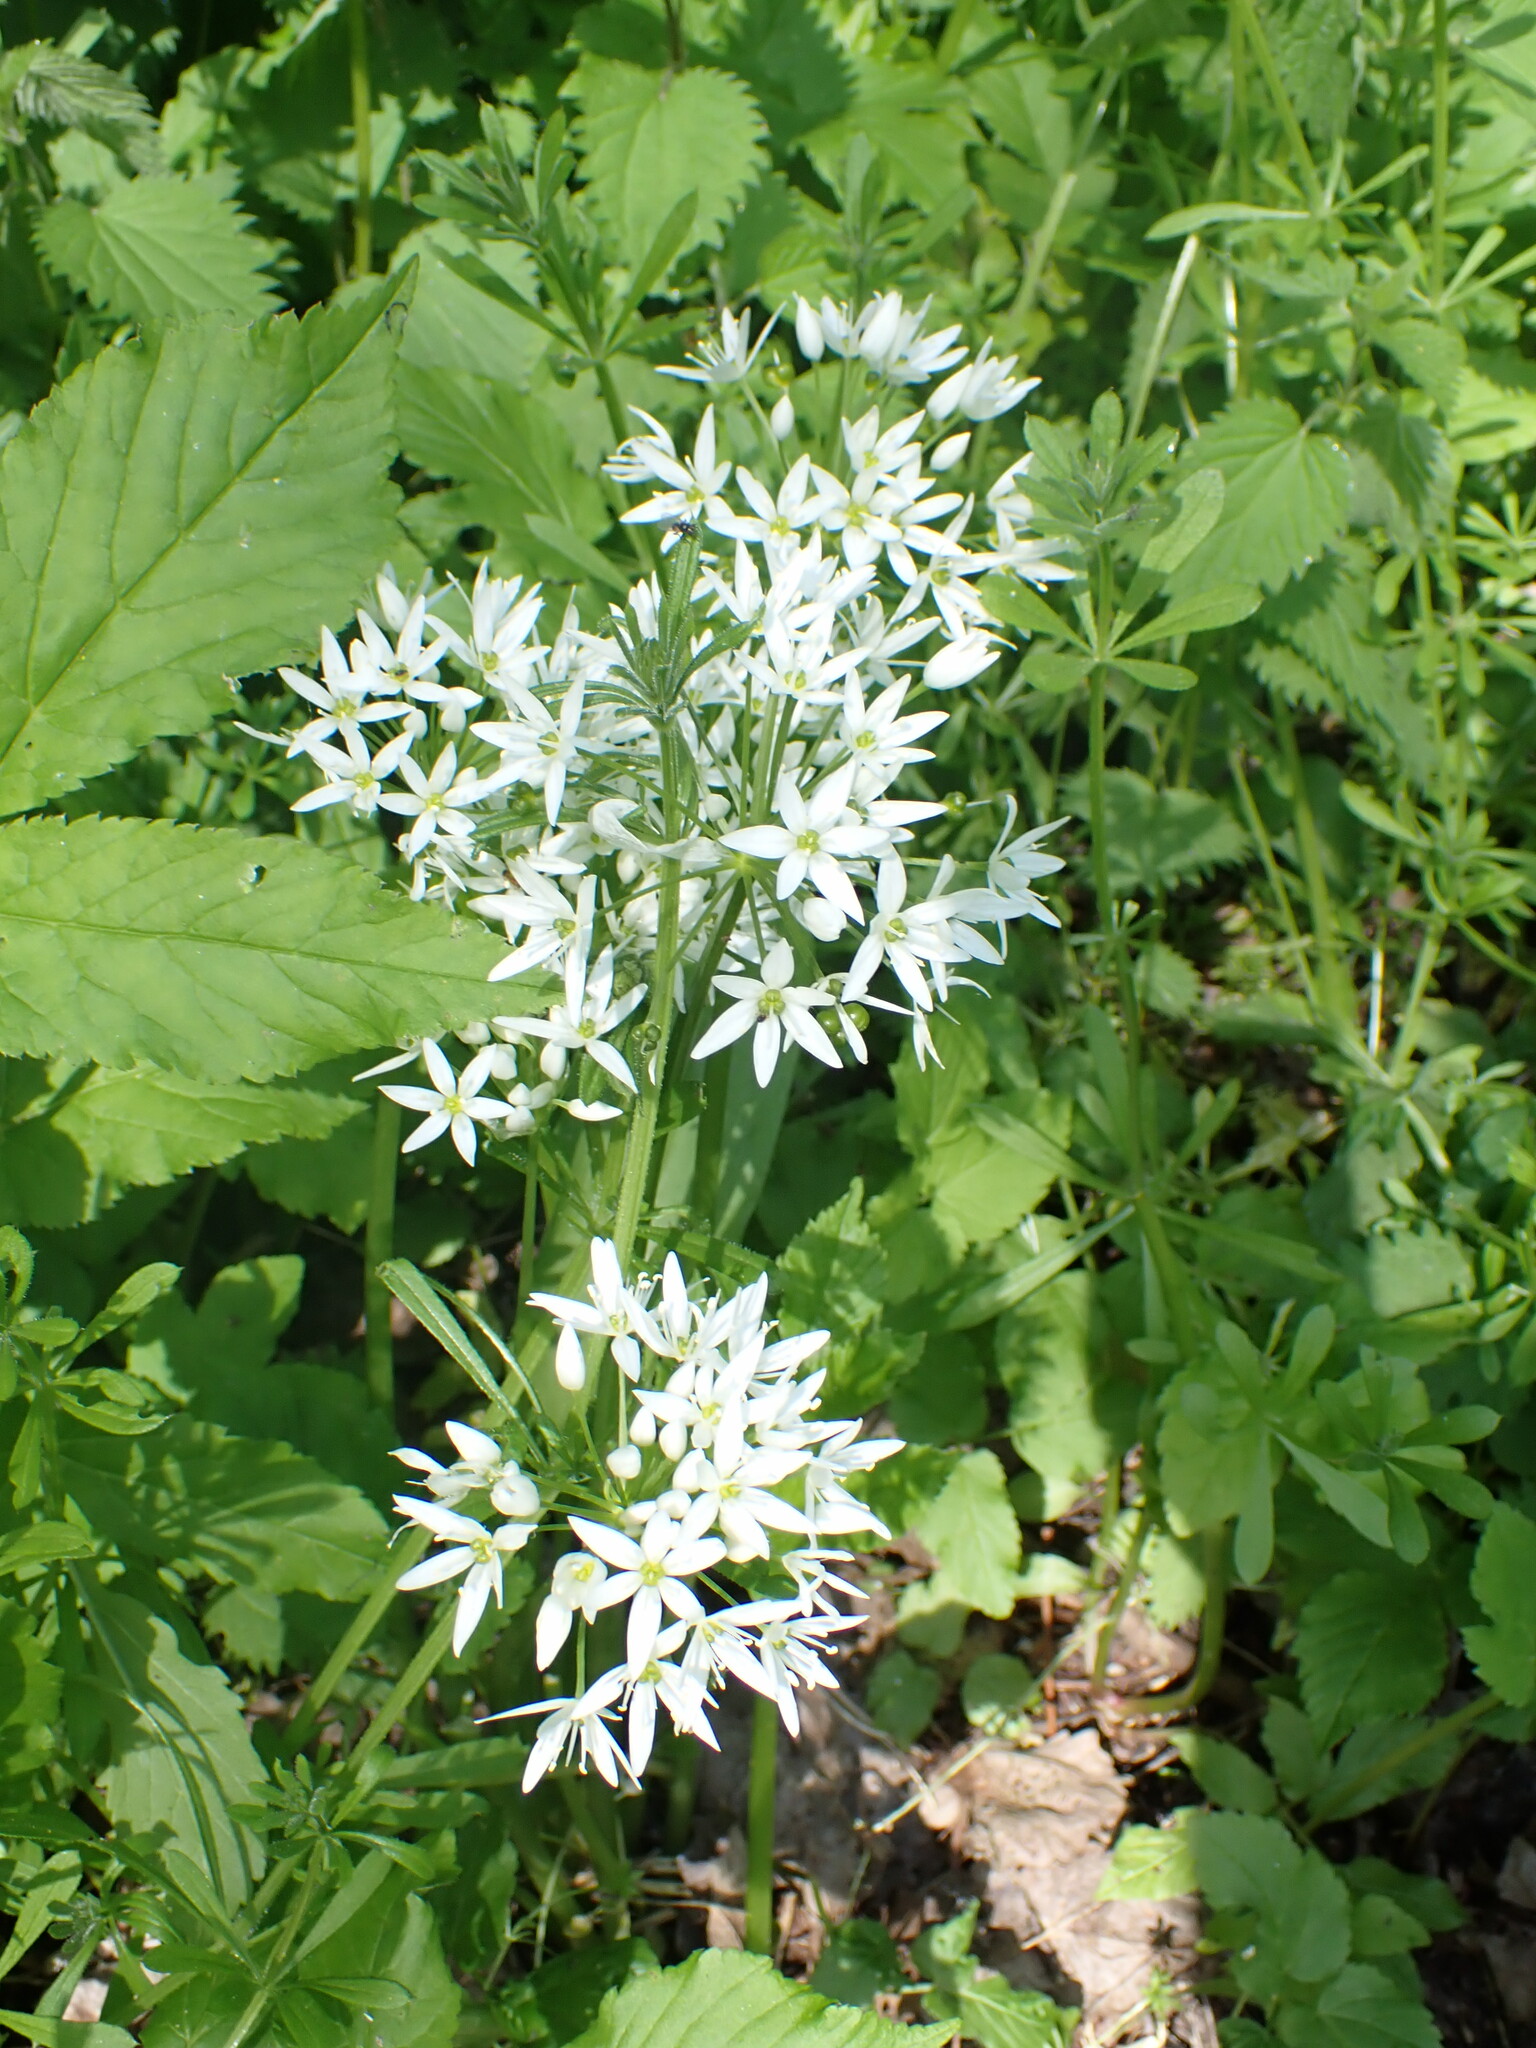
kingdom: Plantae
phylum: Tracheophyta
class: Liliopsida
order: Asparagales
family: Amaryllidaceae
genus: Allium
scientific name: Allium ursinum
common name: Ramsons
